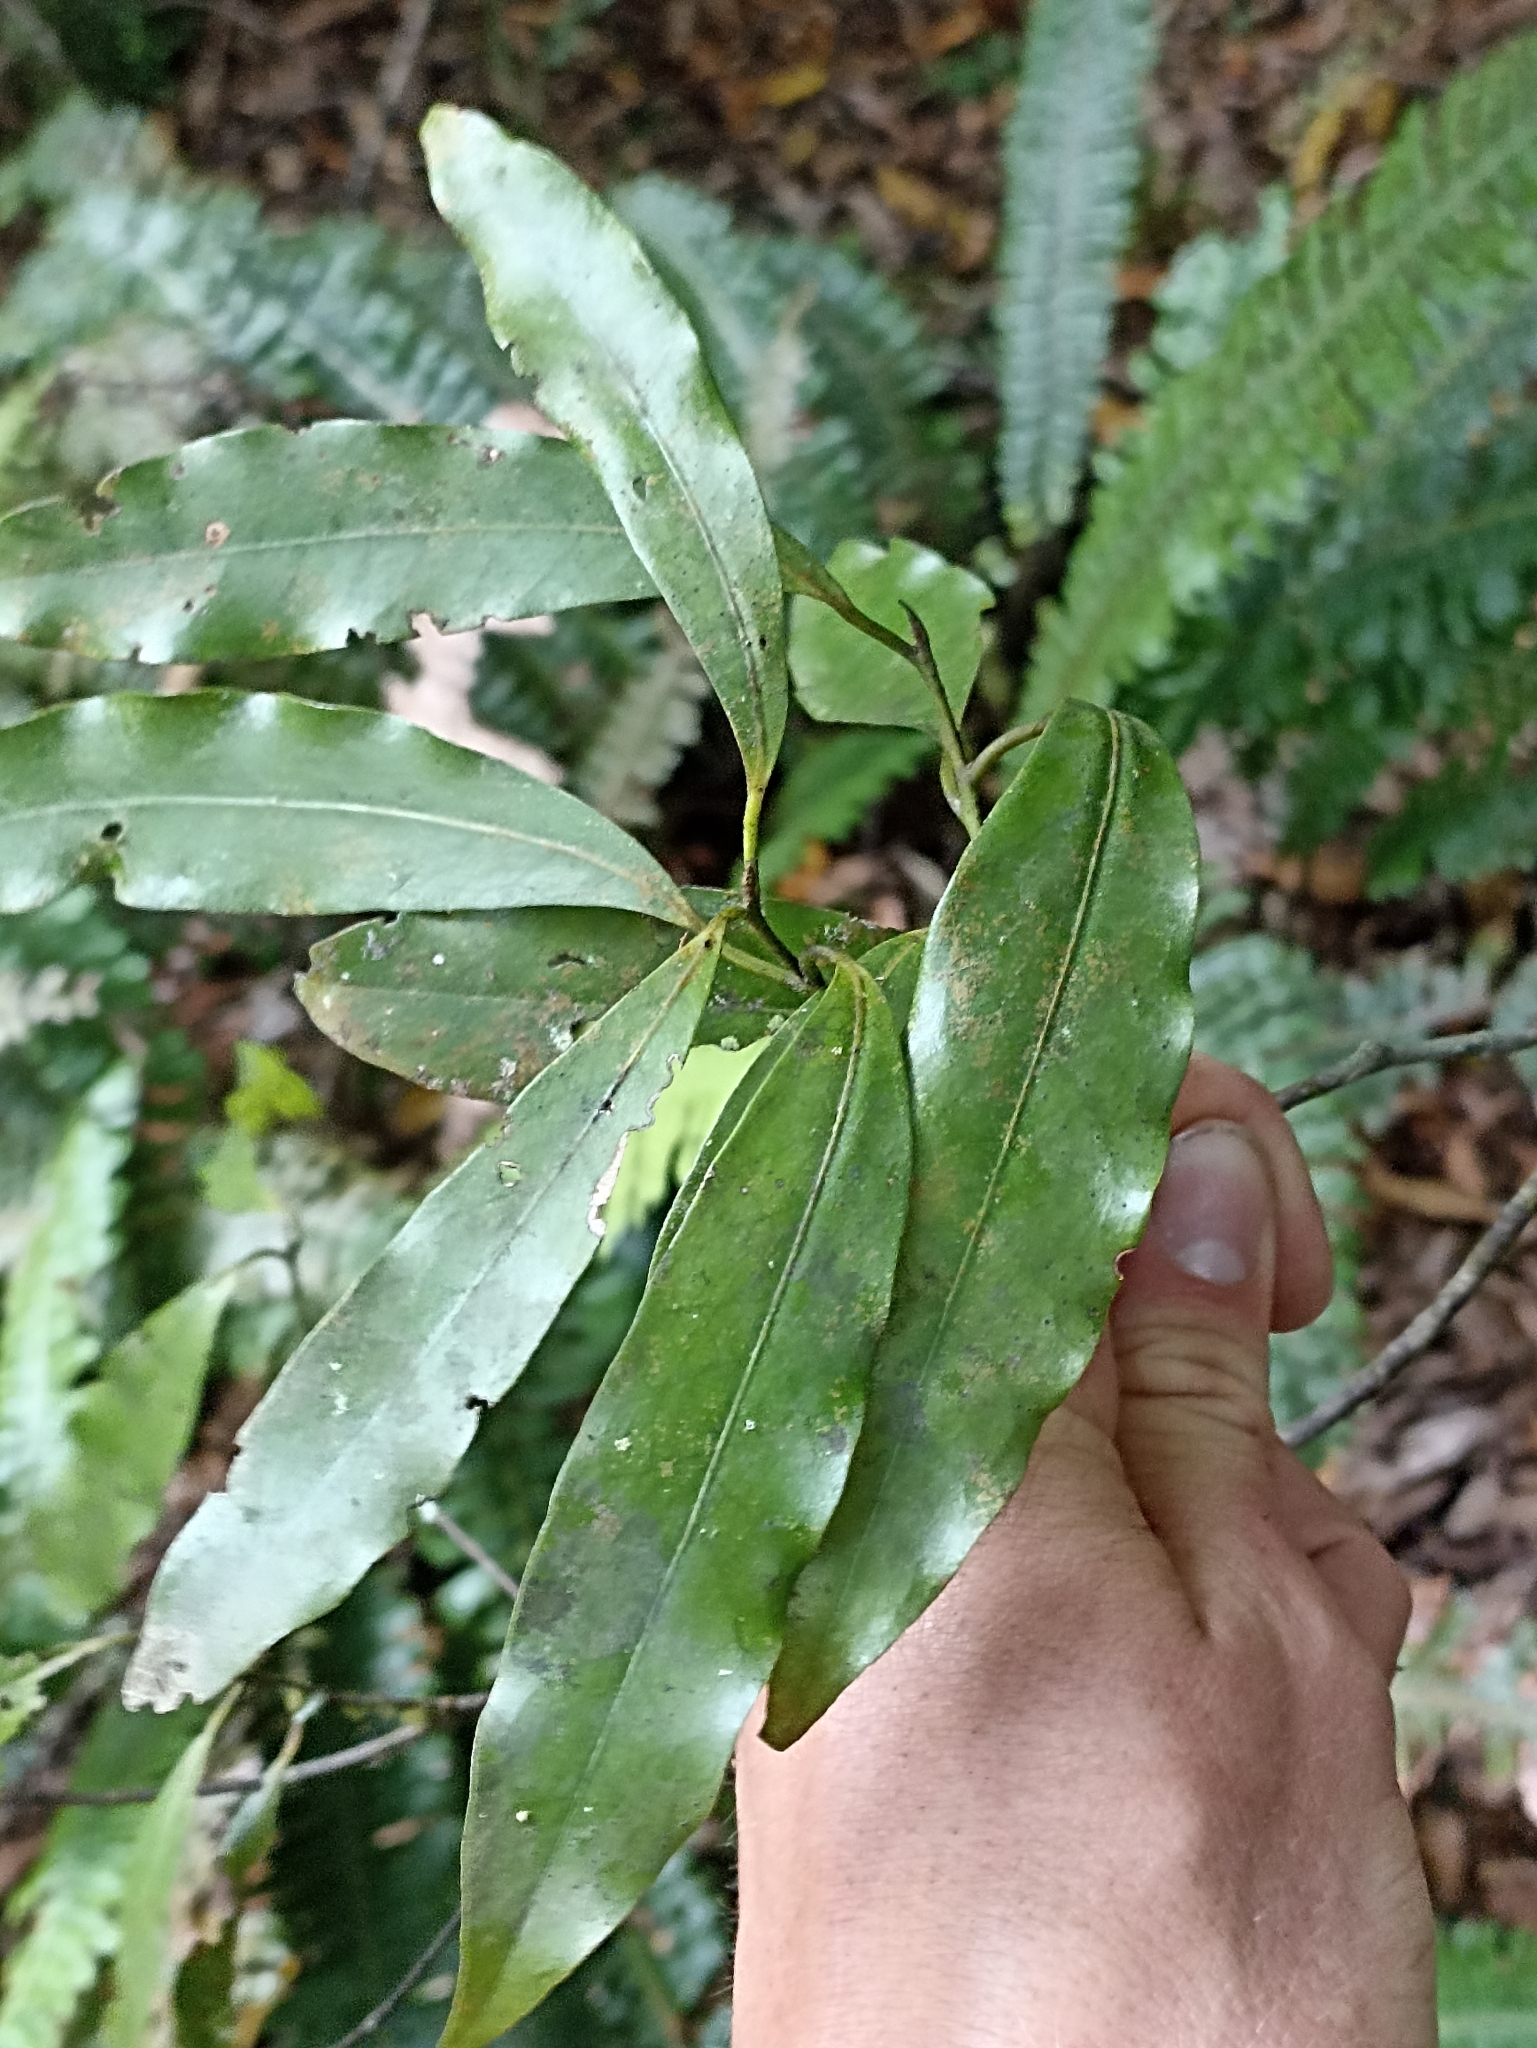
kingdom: Plantae
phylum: Tracheophyta
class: Magnoliopsida
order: Laurales
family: Lauraceae
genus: Beilschmiedia
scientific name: Beilschmiedia tawa
